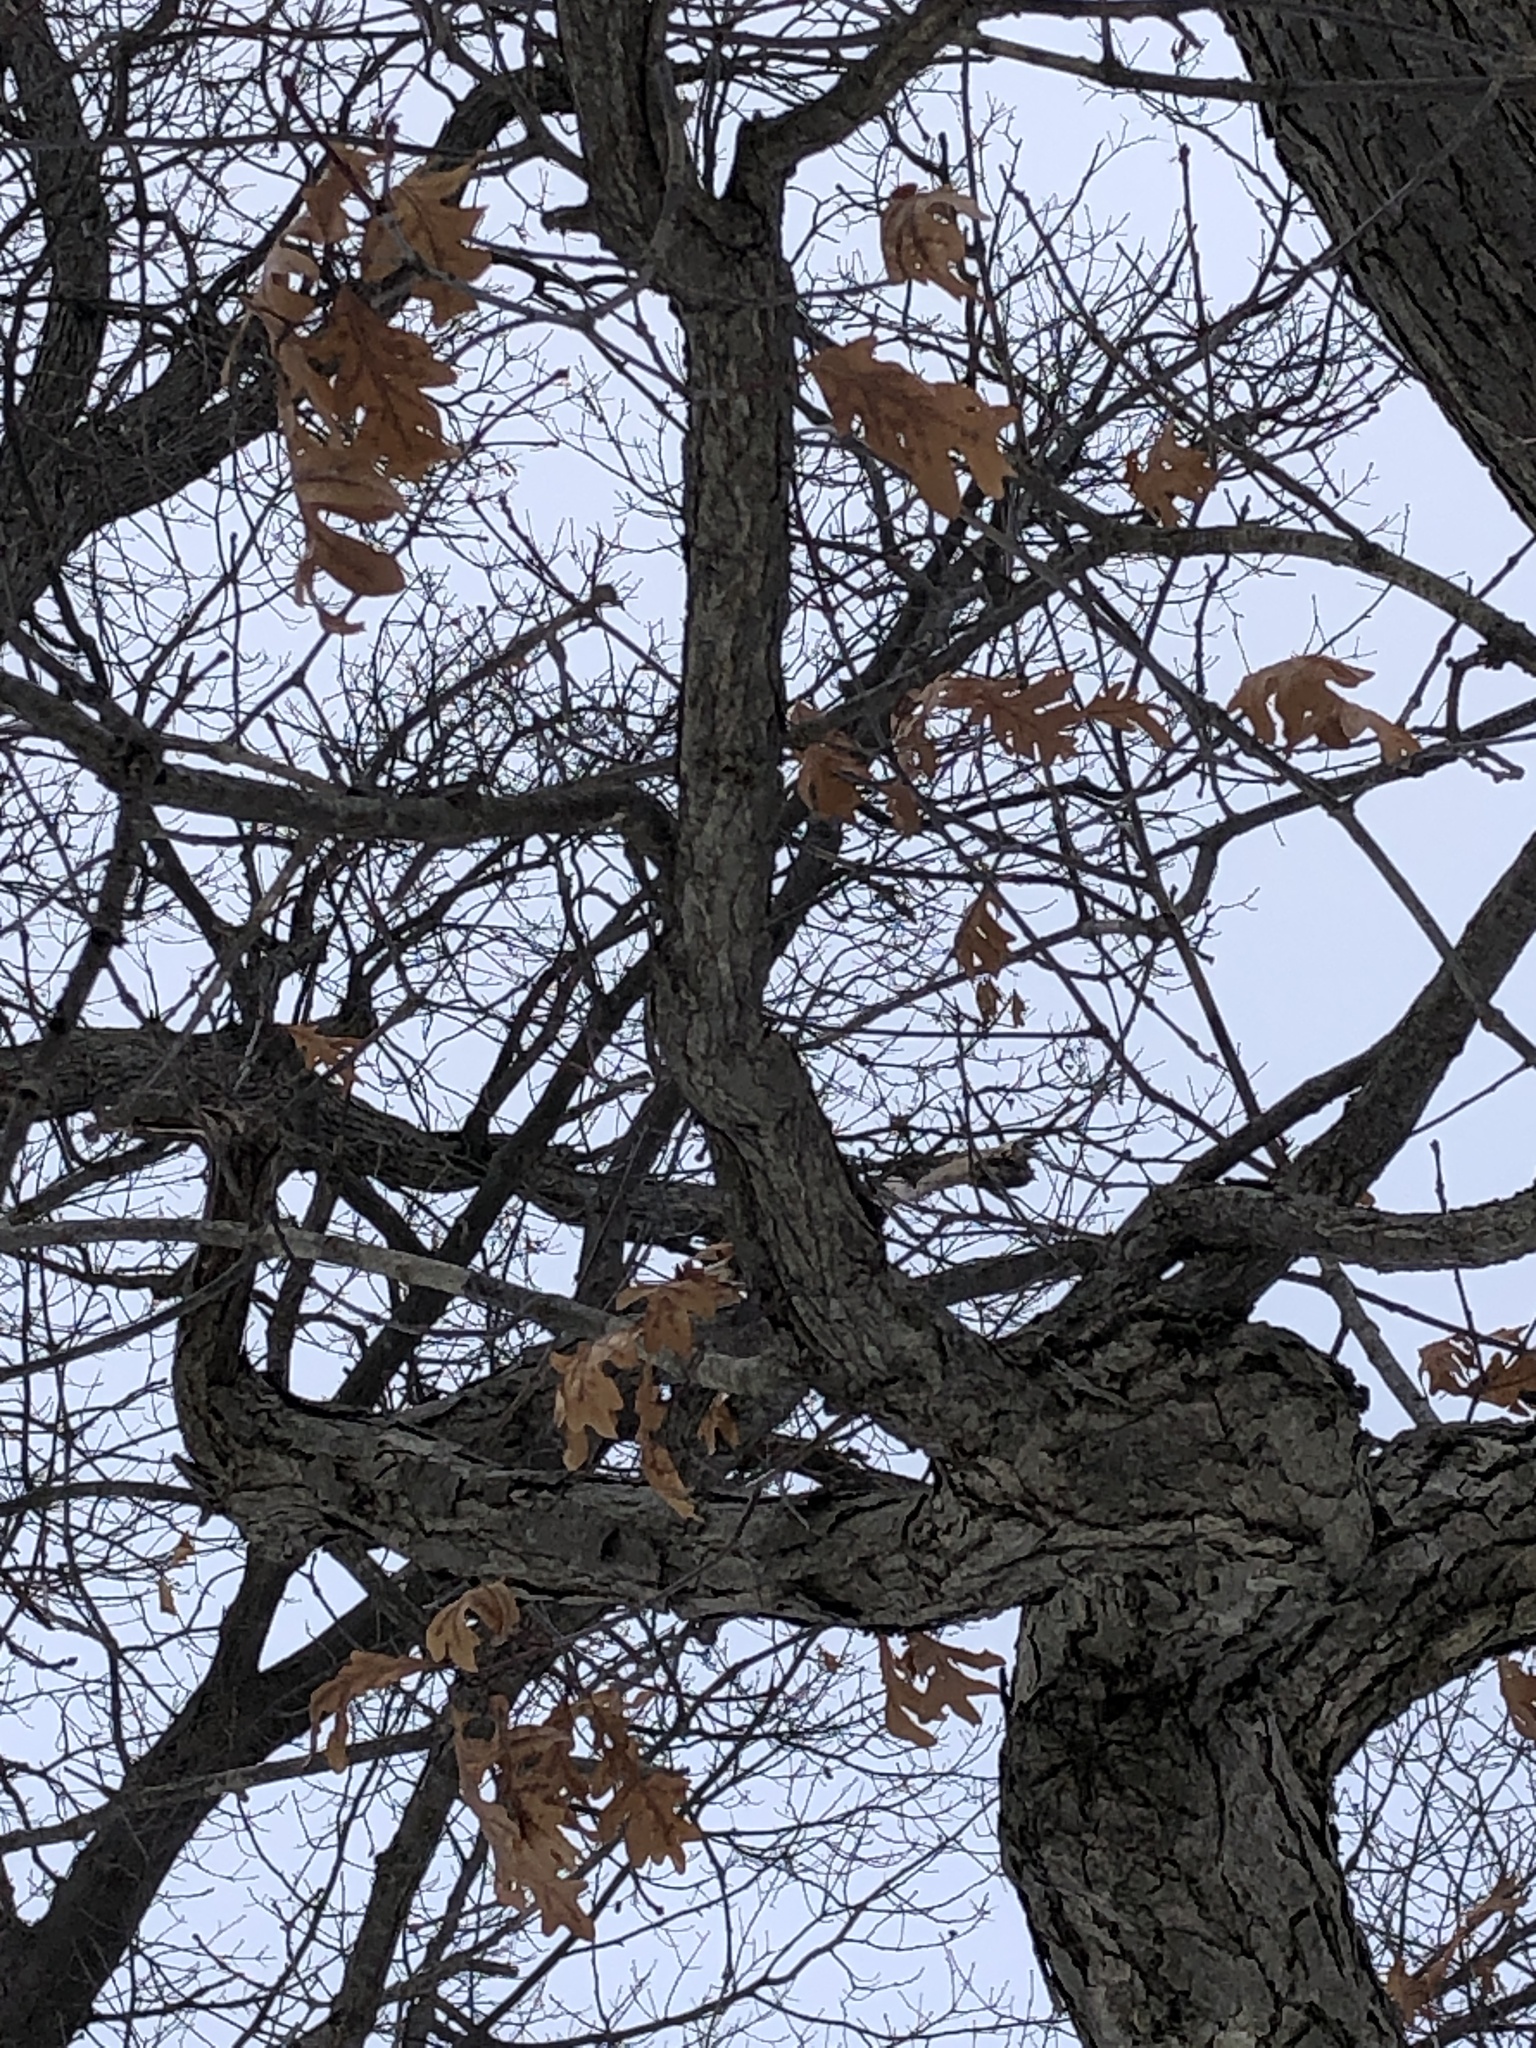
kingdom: Plantae
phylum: Tracheophyta
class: Magnoliopsida
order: Fagales
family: Fagaceae
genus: Quercus
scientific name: Quercus alba
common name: White oak
